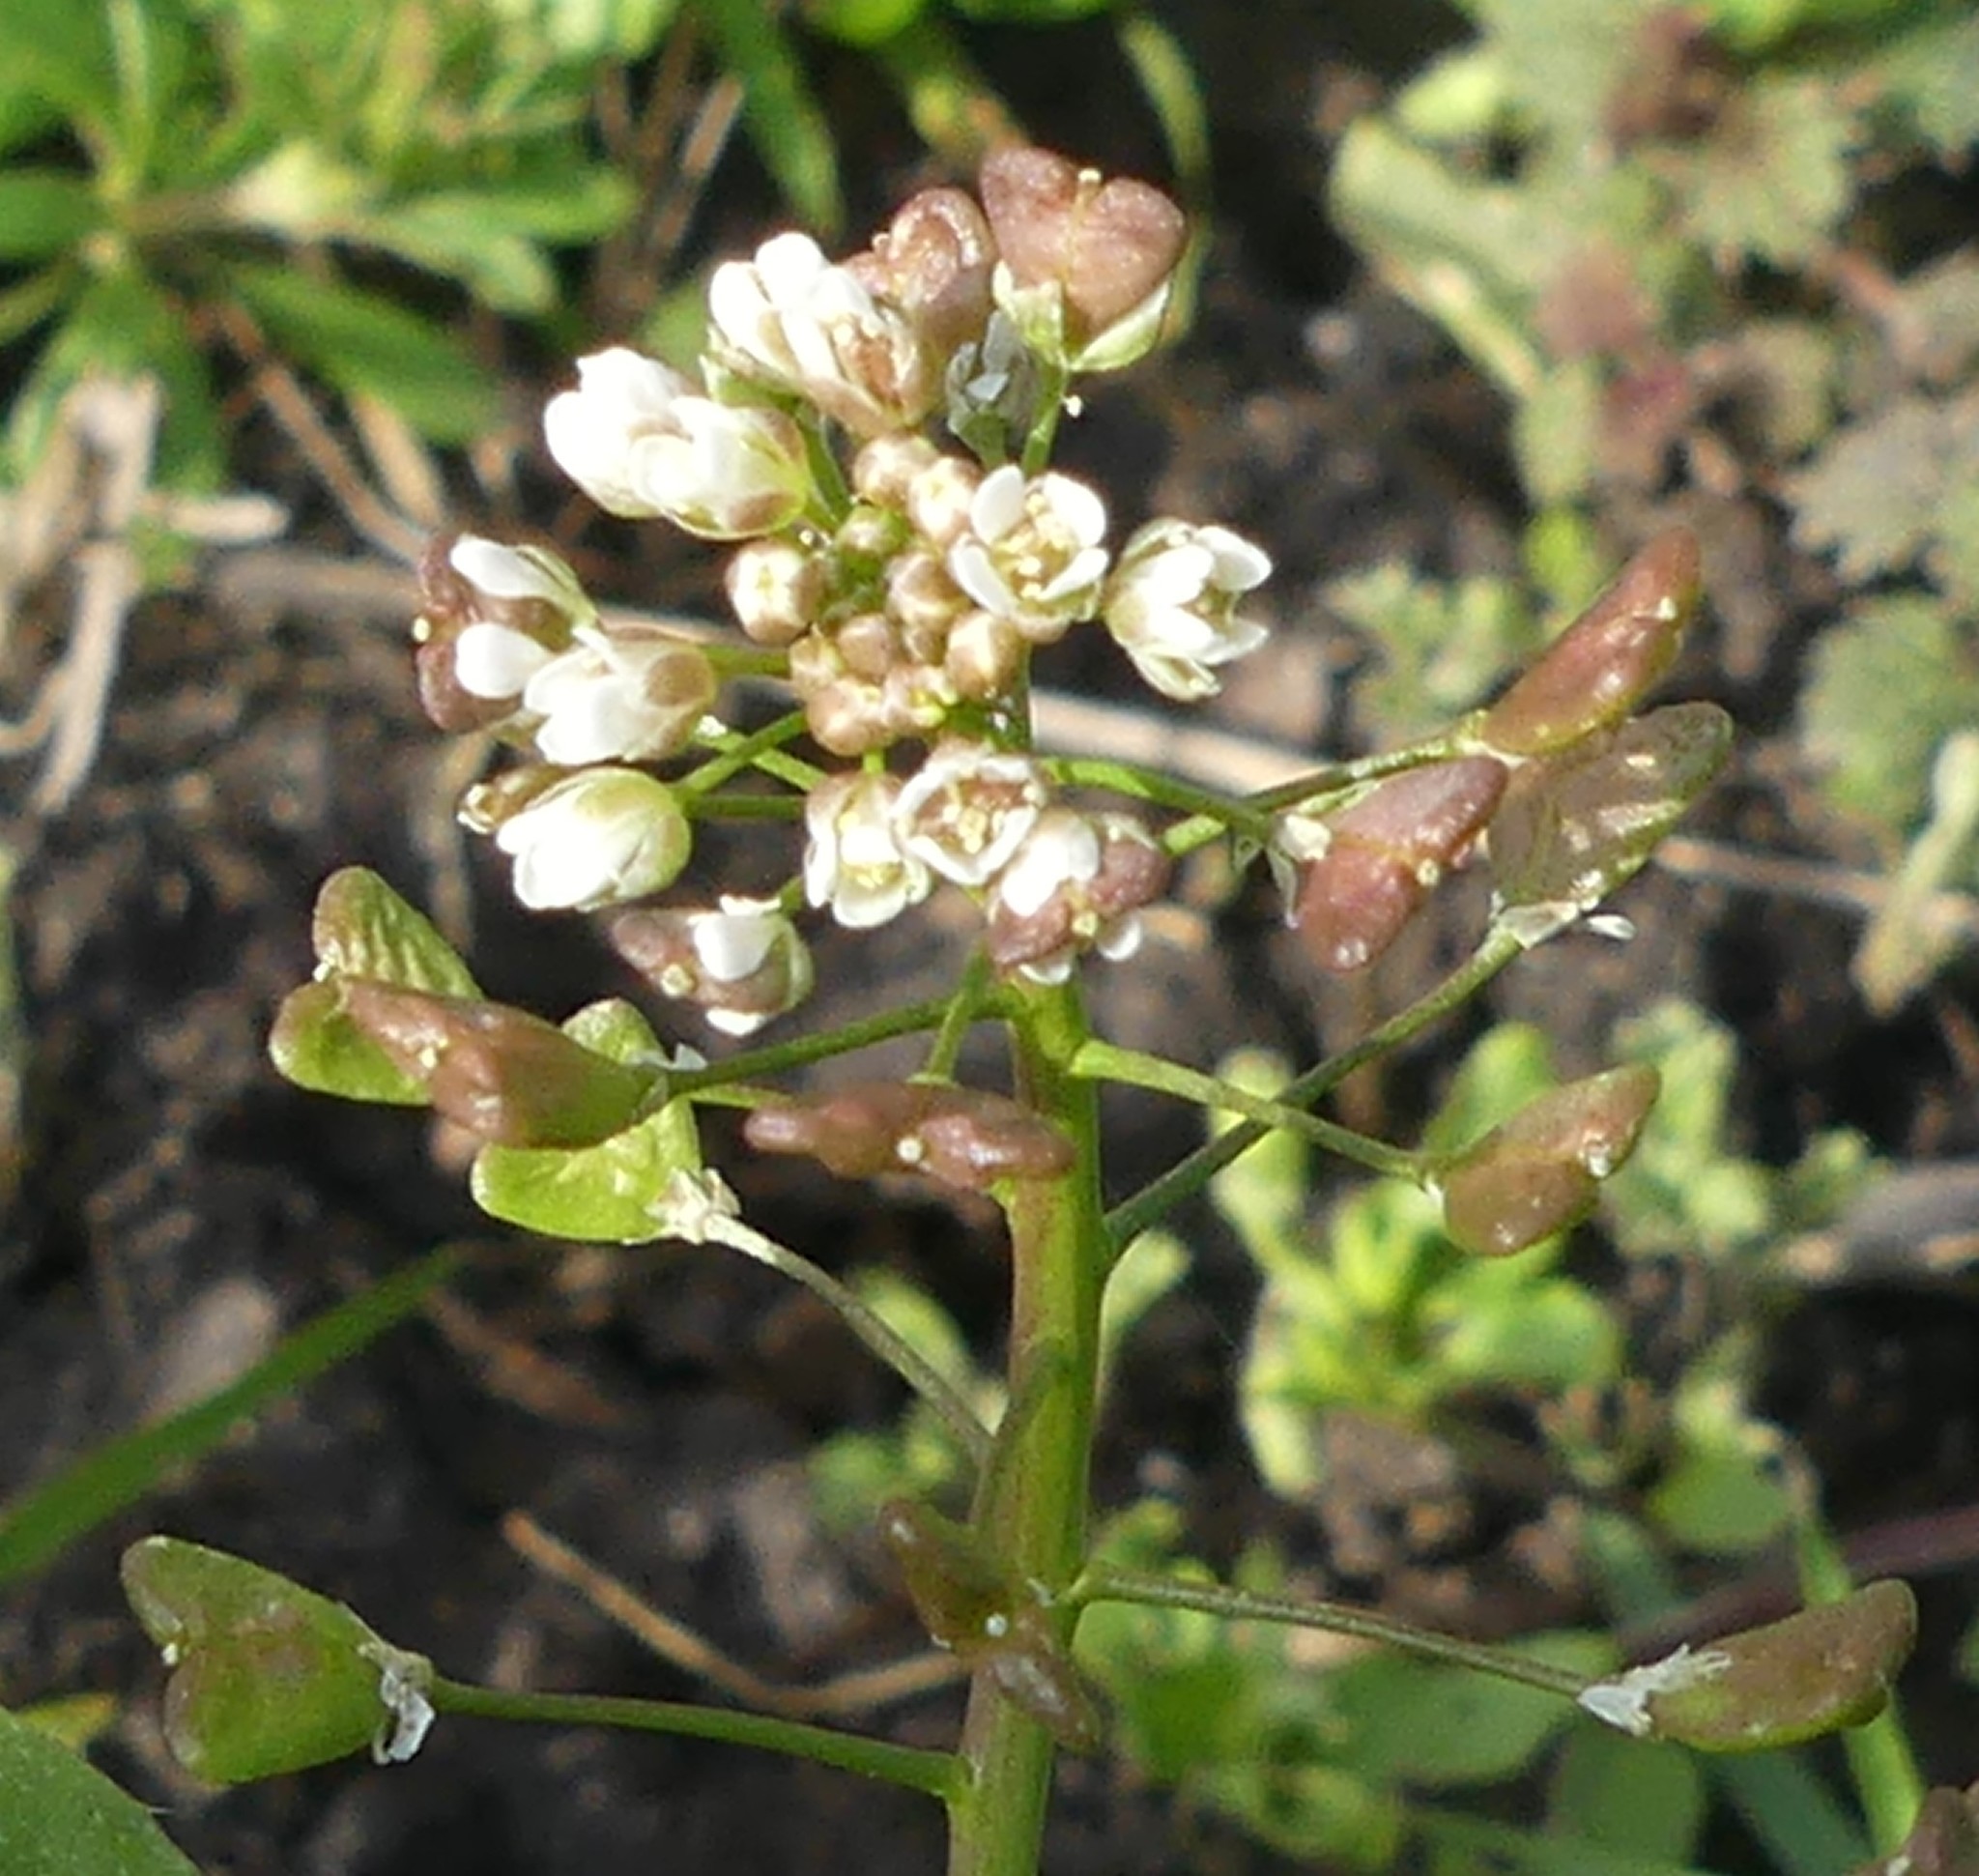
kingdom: Plantae
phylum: Tracheophyta
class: Magnoliopsida
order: Brassicales
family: Brassicaceae
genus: Capsella
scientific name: Capsella bursa-pastoris
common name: Shepherd's purse
